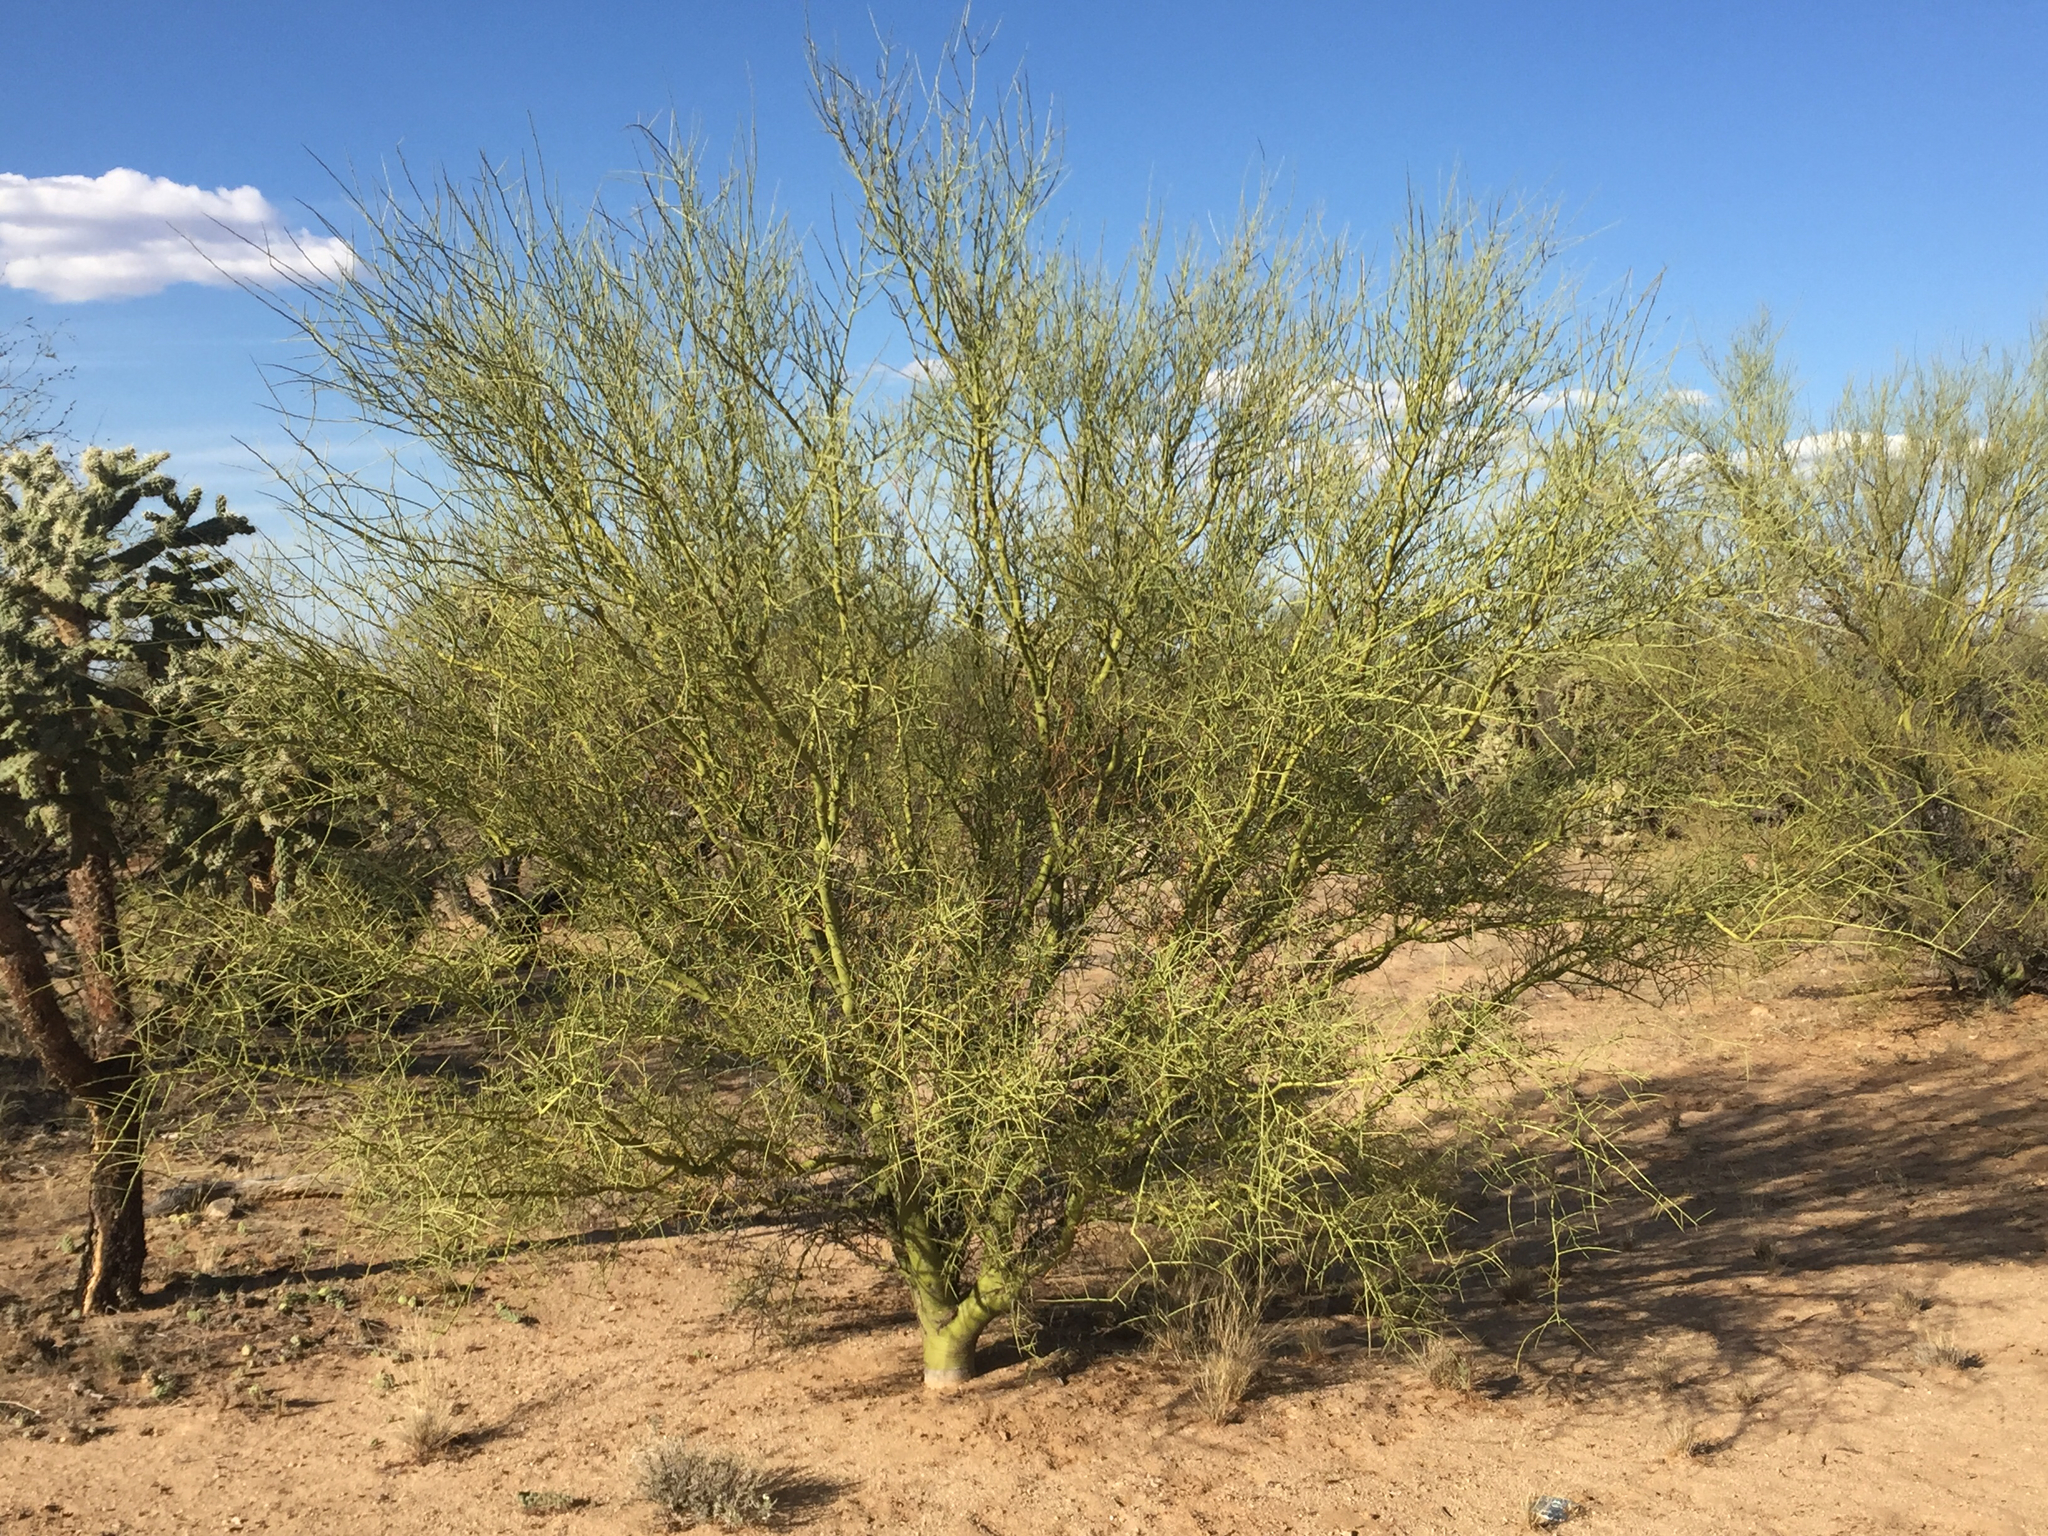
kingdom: Plantae
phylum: Tracheophyta
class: Magnoliopsida
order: Fabales
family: Fabaceae
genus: Parkinsonia
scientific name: Parkinsonia microphylla
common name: Yellow paloverde
